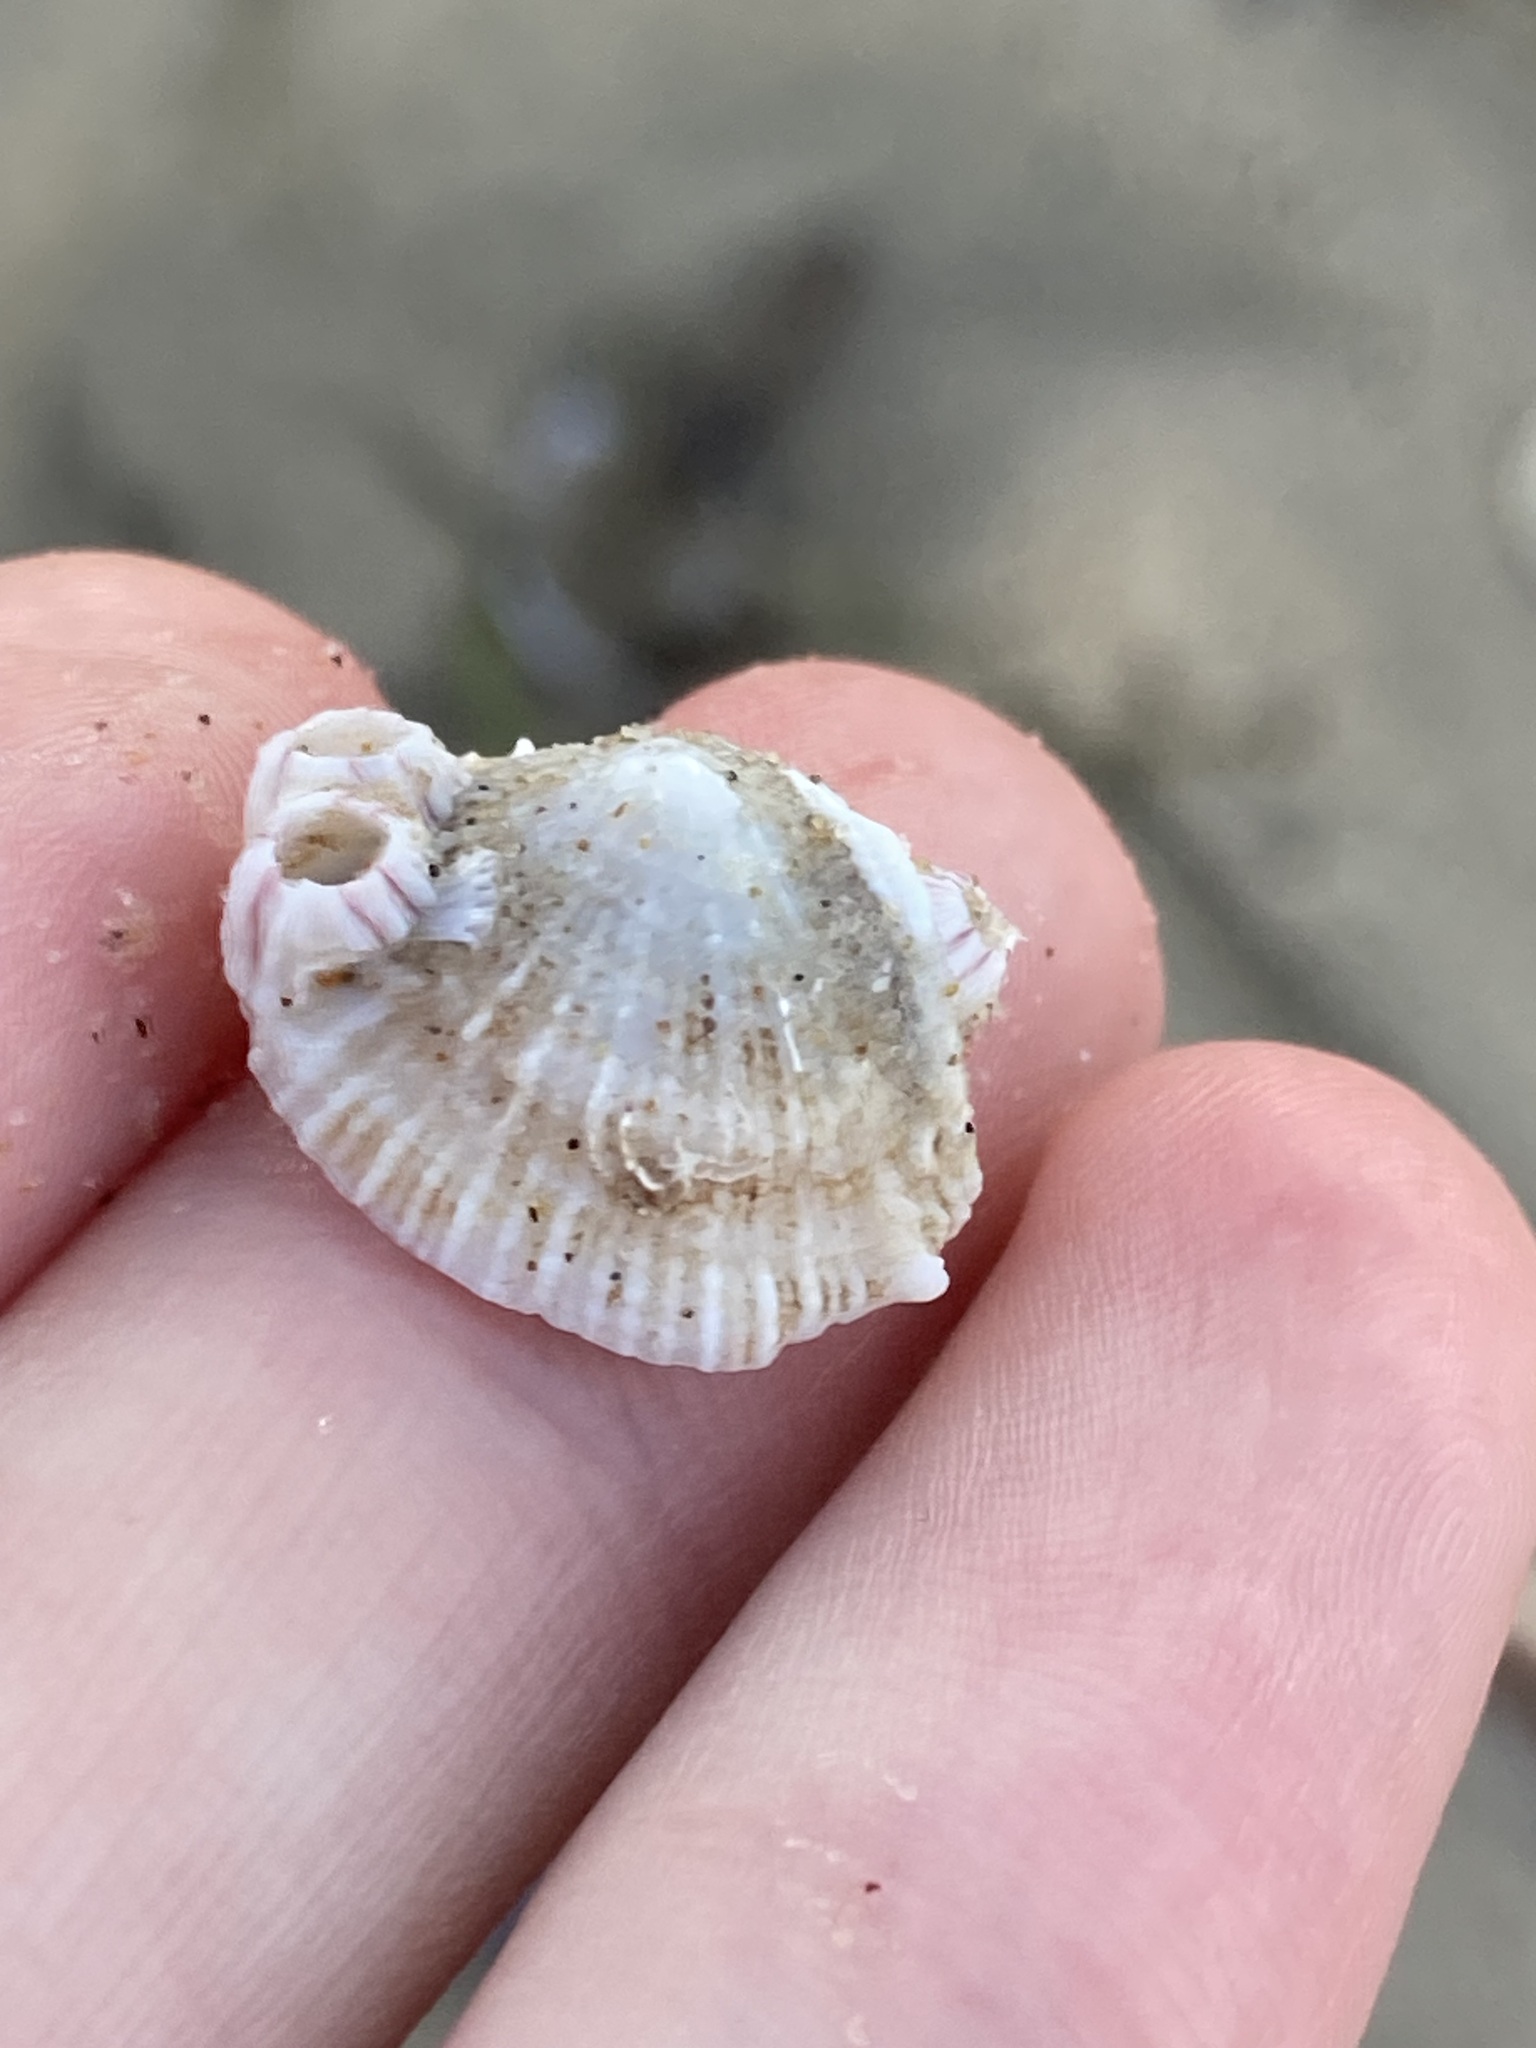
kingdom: Animalia
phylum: Mollusca
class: Gastropoda
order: Lepetellida
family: Fissurellidae
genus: Montfortula
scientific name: Montfortula rugosa
